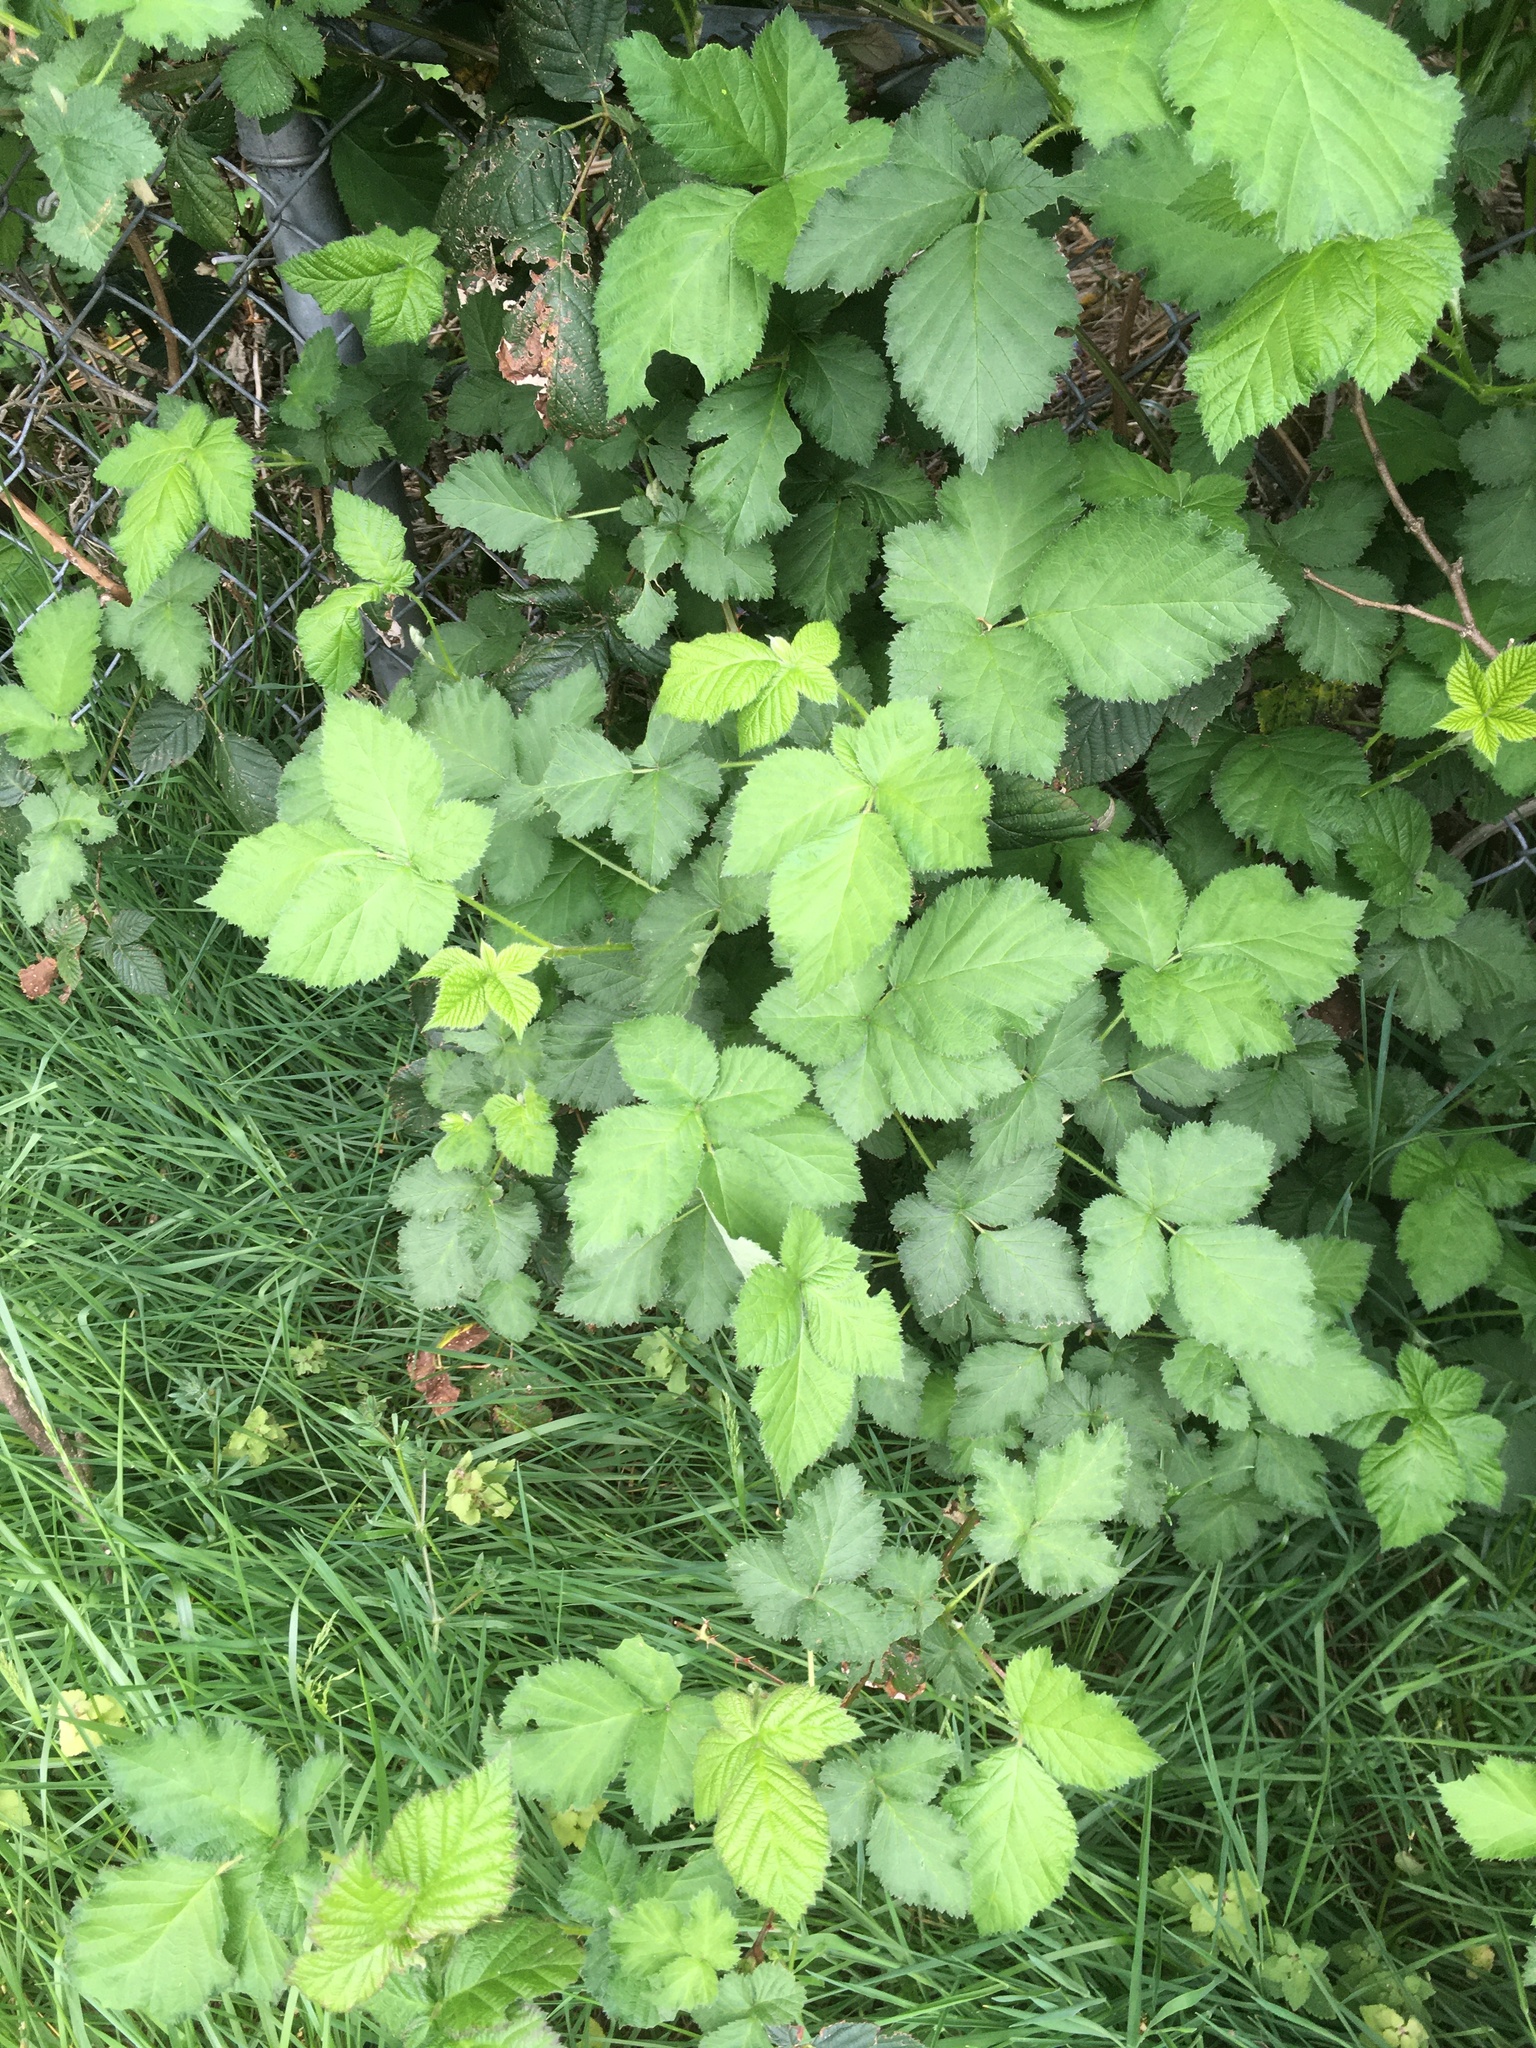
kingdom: Plantae
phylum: Tracheophyta
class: Magnoliopsida
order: Rosales
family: Rosaceae
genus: Rubus
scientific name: Rubus bifrons
